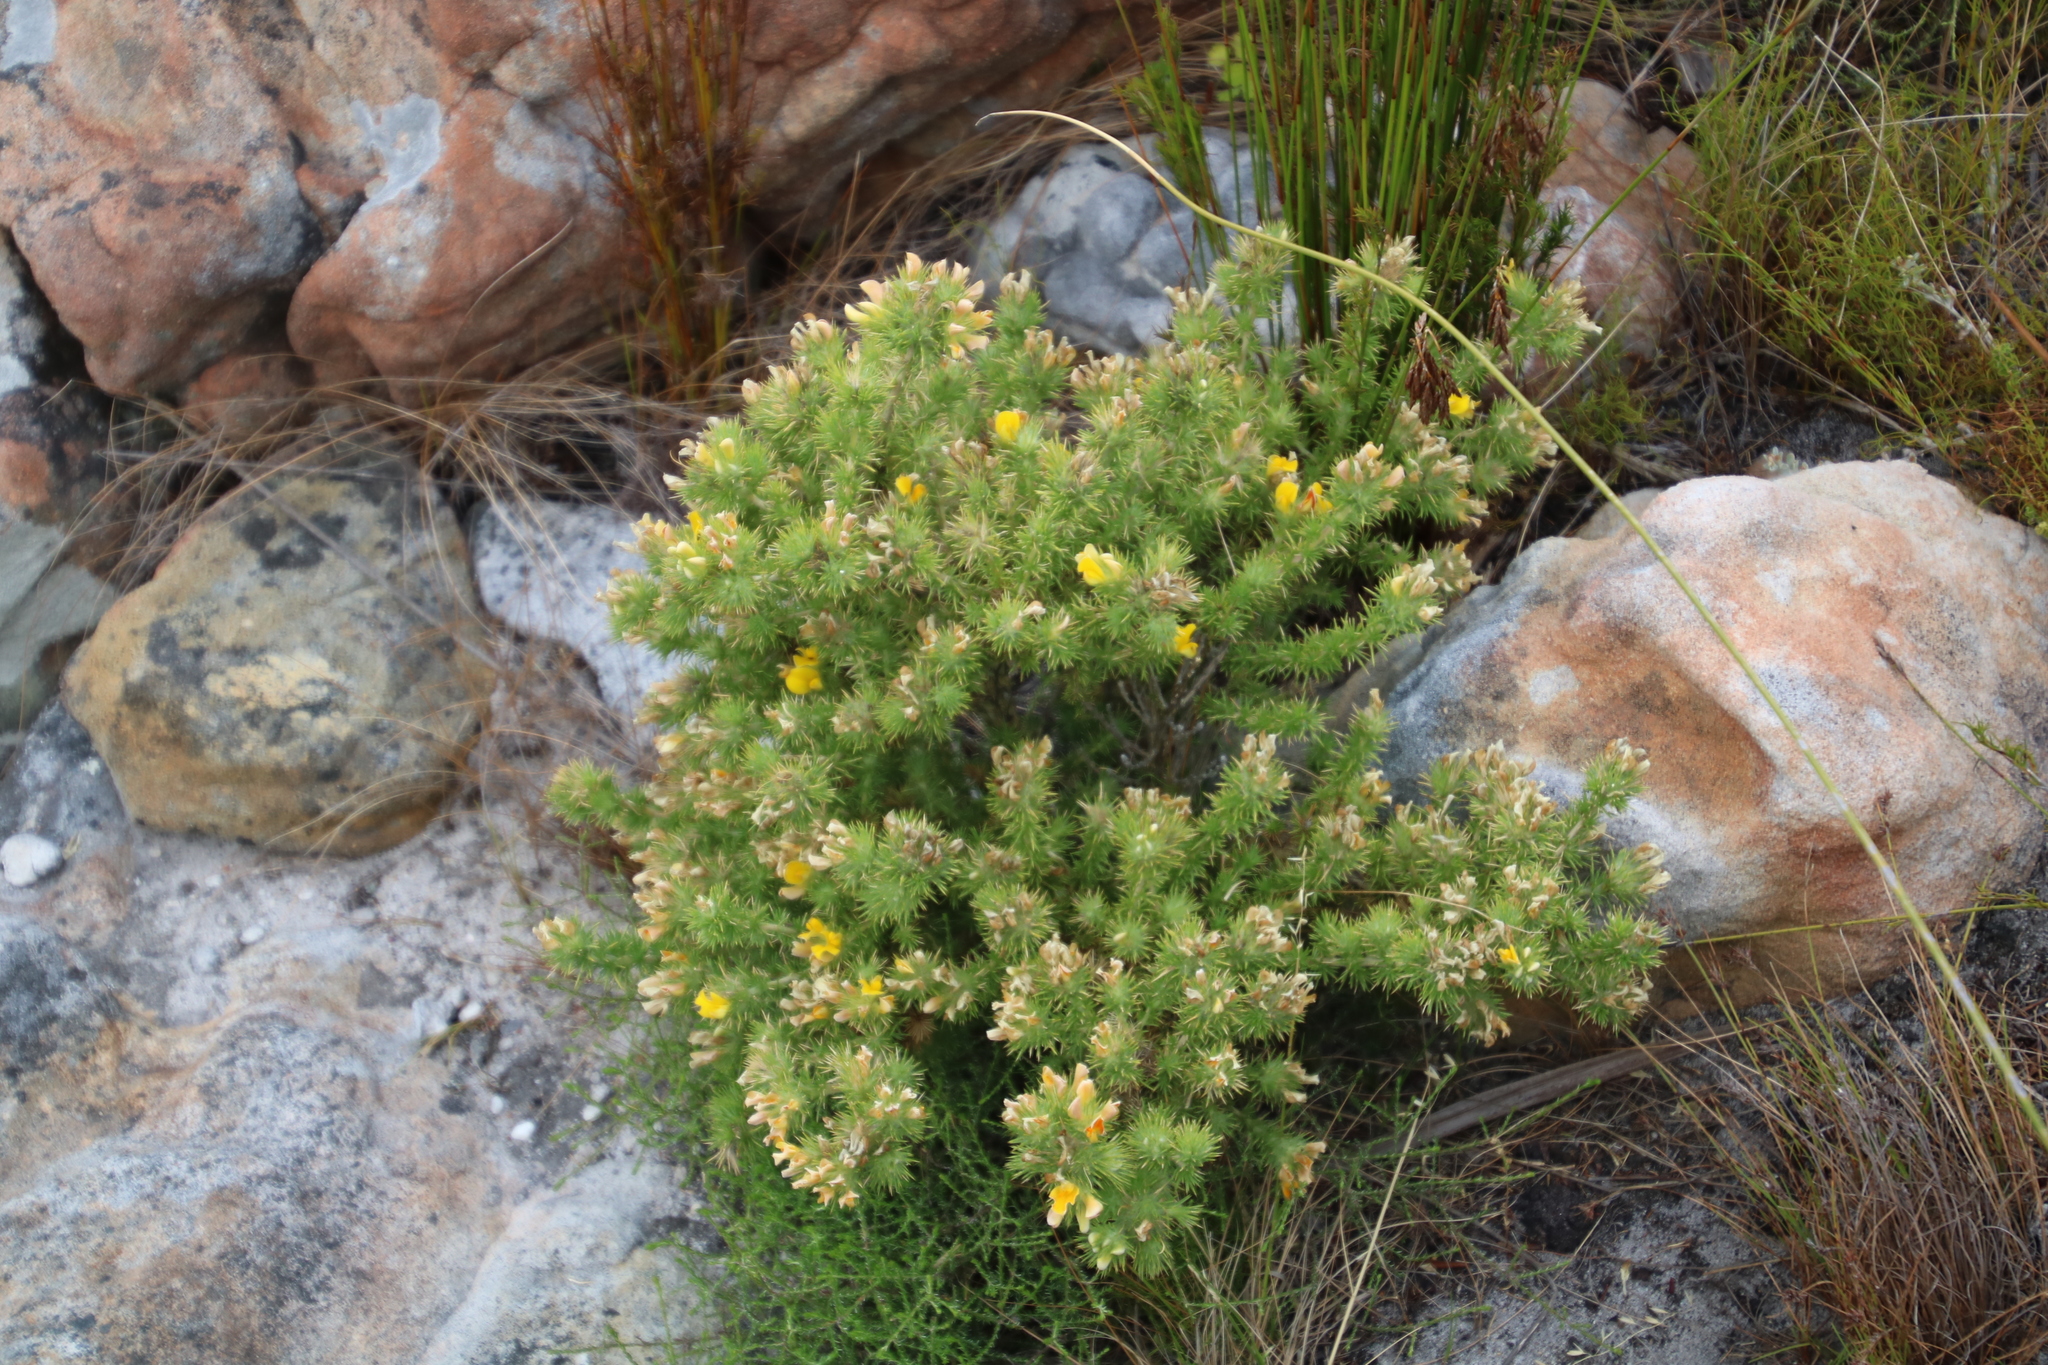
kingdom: Plantae
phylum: Tracheophyta
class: Magnoliopsida
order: Fabales
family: Fabaceae
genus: Aspalathus
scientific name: Aspalathus chenopoda
